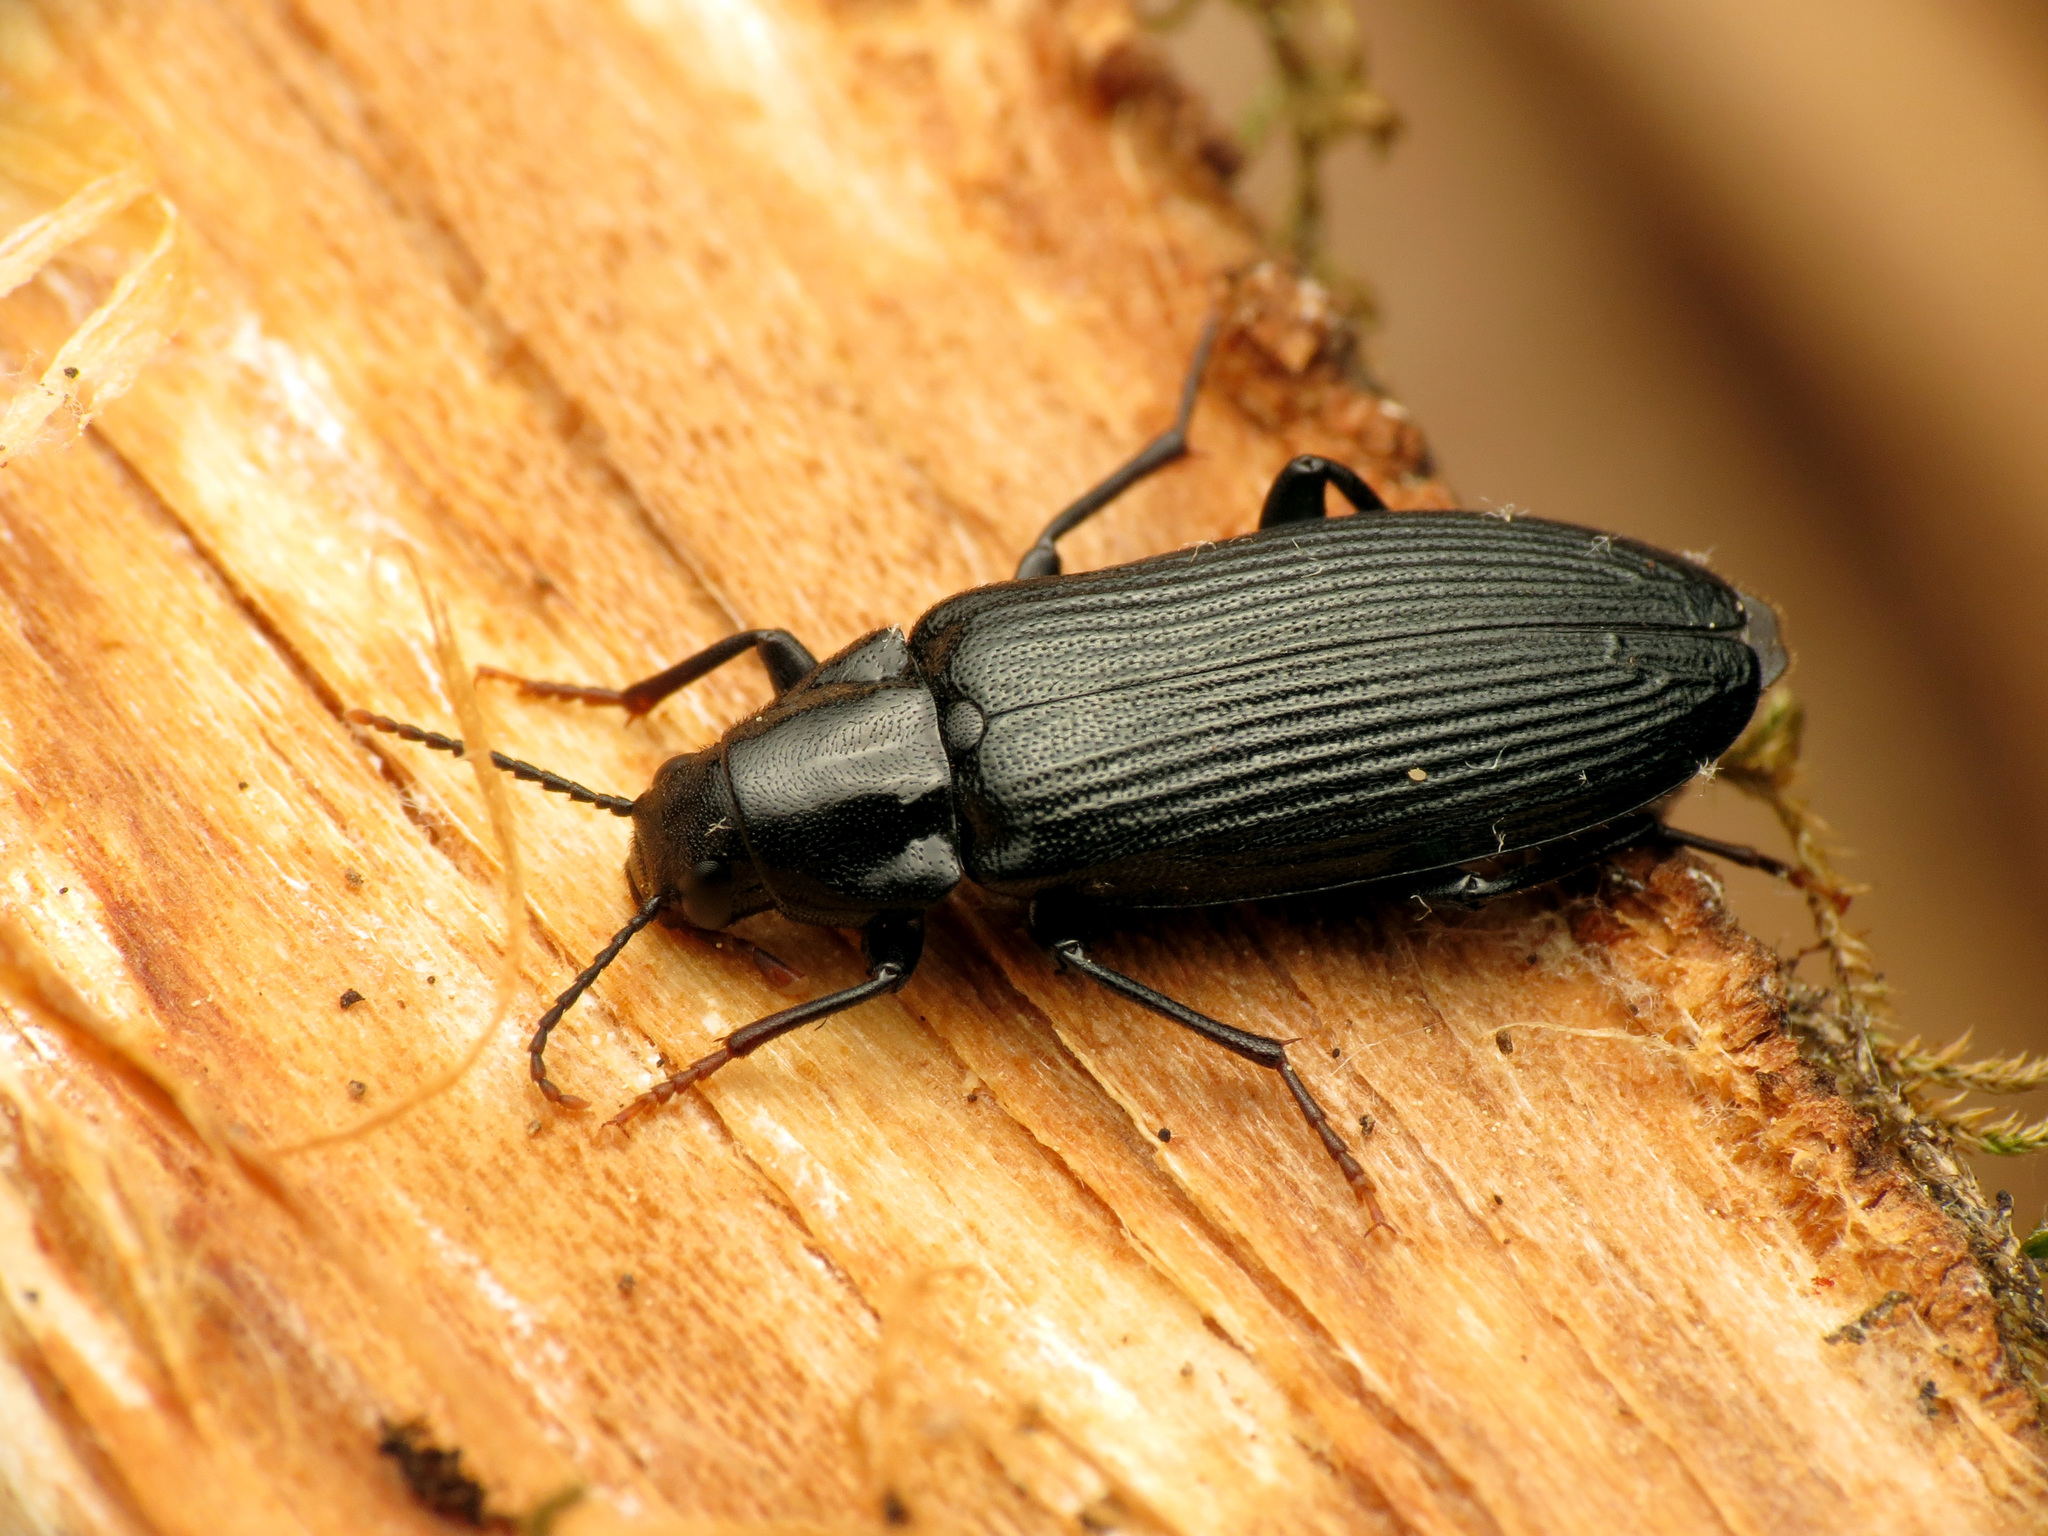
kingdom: Animalia
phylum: Arthropoda
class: Insecta
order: Coleoptera
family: Melandryidae
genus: Melandrya
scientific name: Melandrya striata
